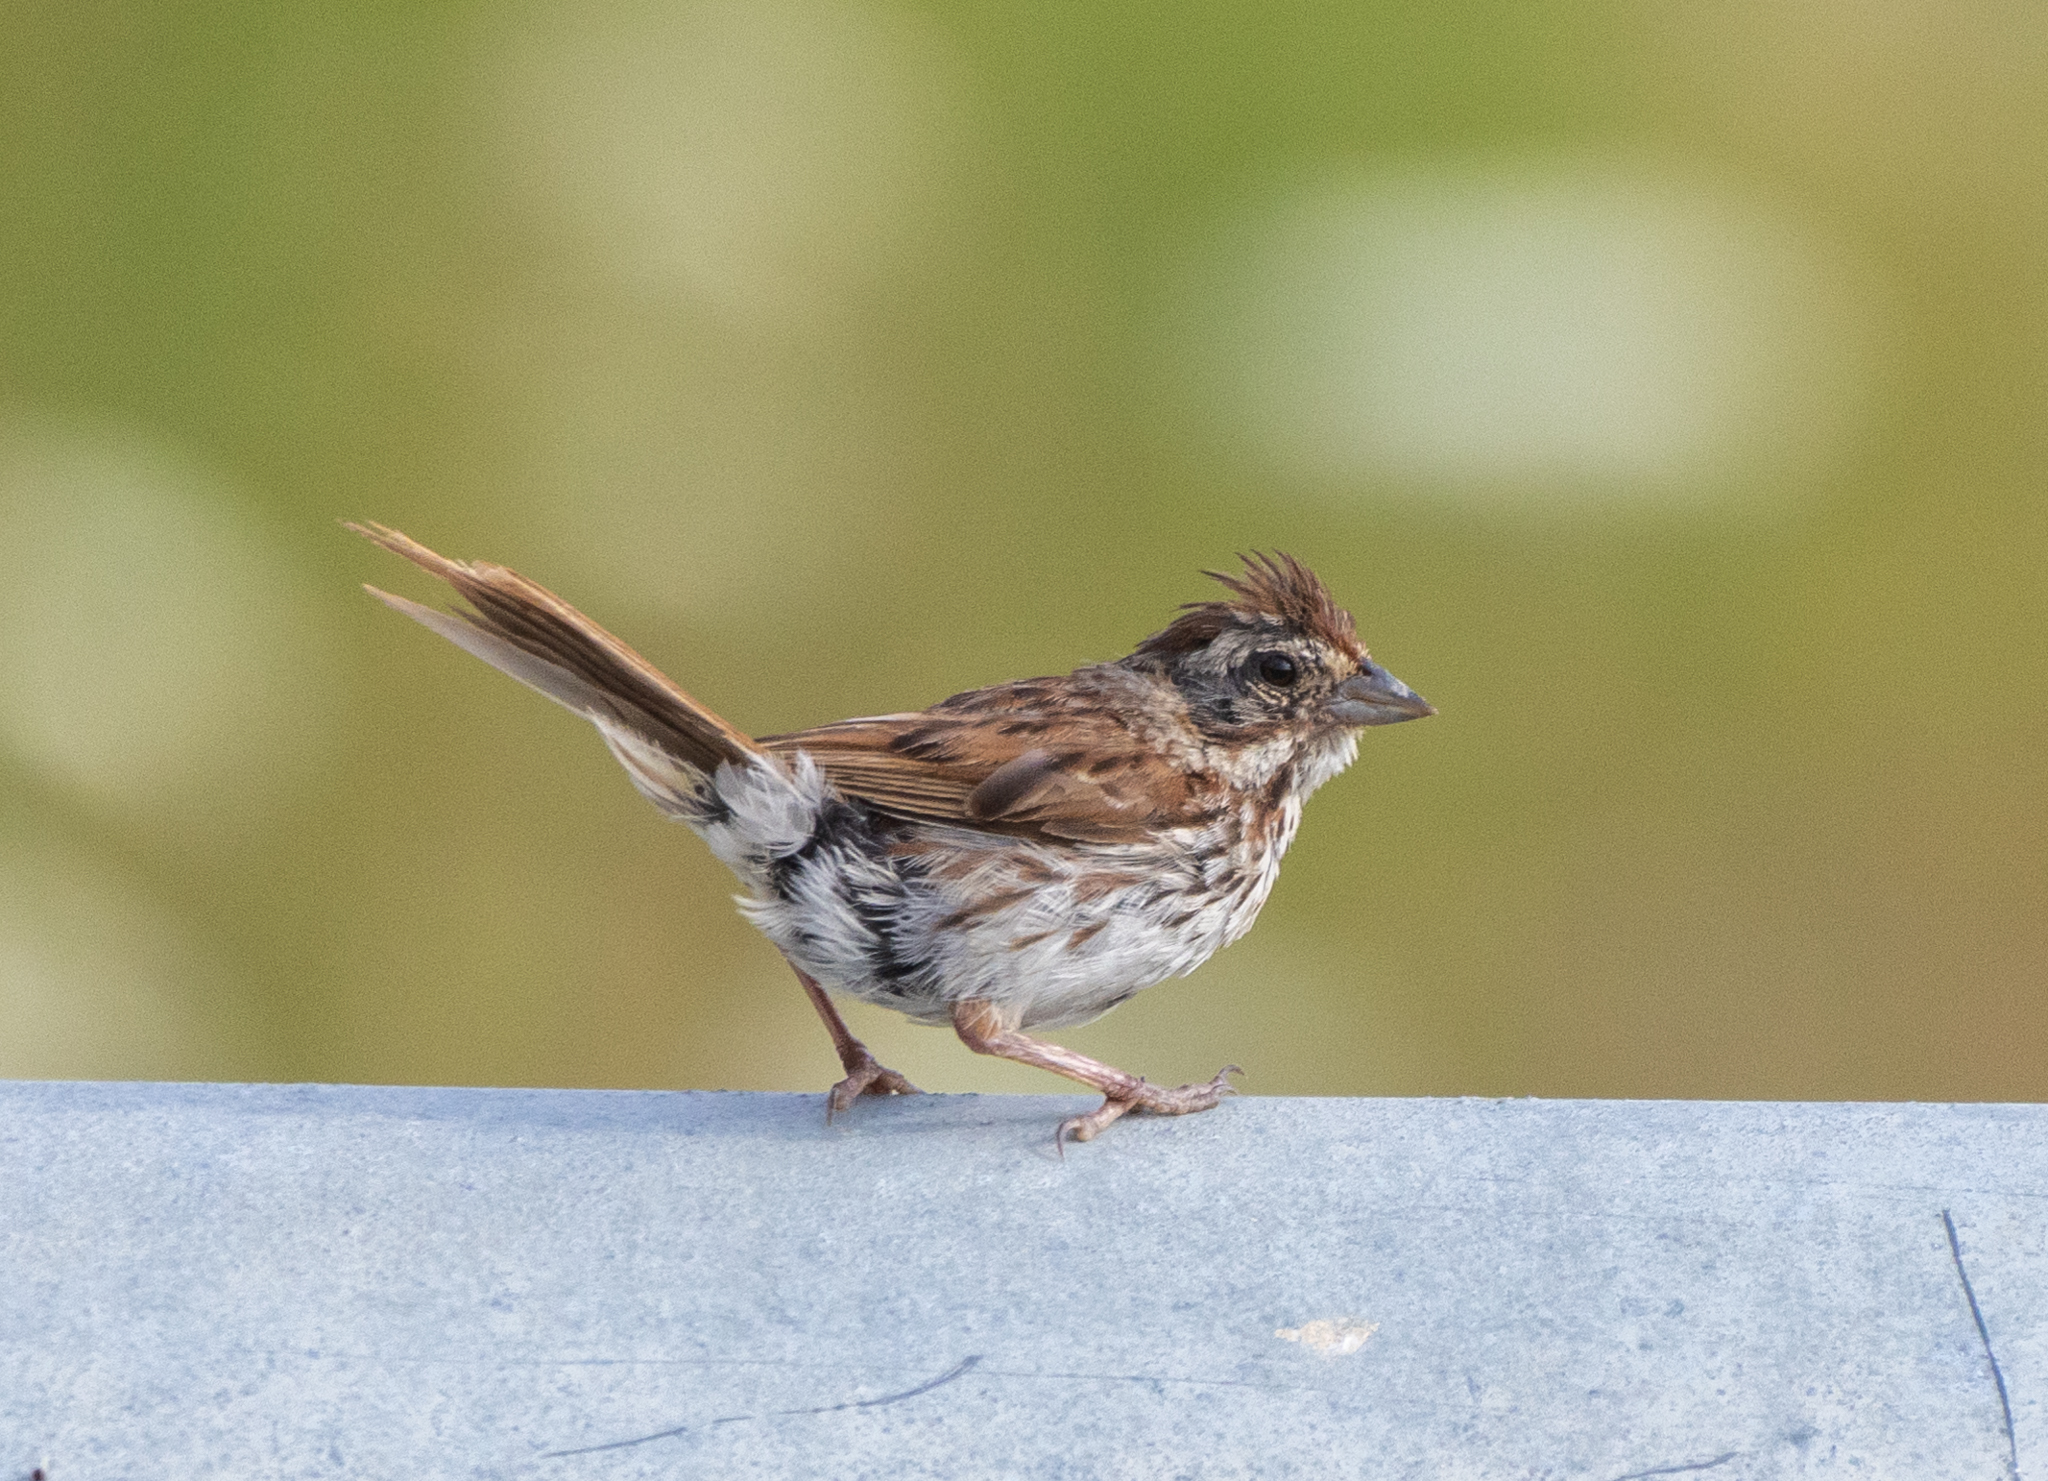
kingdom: Animalia
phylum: Chordata
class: Aves
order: Passeriformes
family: Passerellidae
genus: Melospiza
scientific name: Melospiza melodia
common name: Song sparrow
